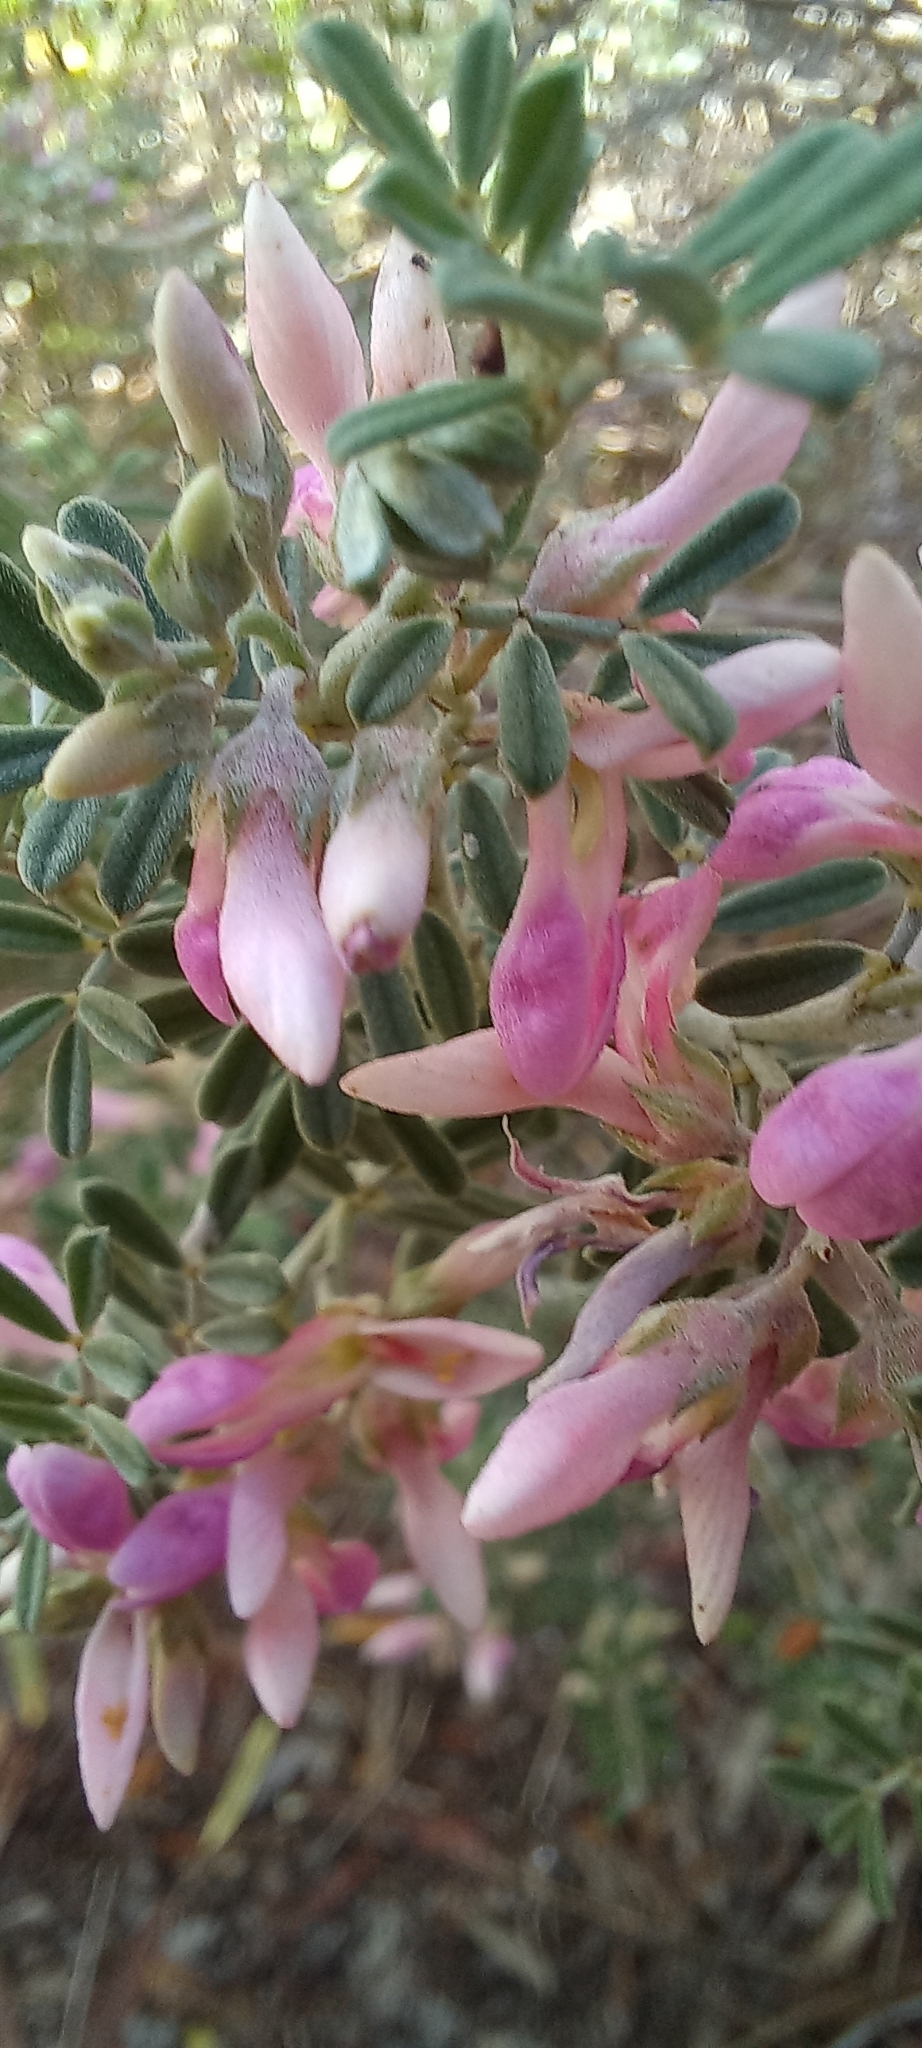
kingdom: Plantae
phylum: Tracheophyta
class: Magnoliopsida
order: Fabales
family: Fabaceae
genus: Indigofera
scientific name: Indigofera brachystachya
